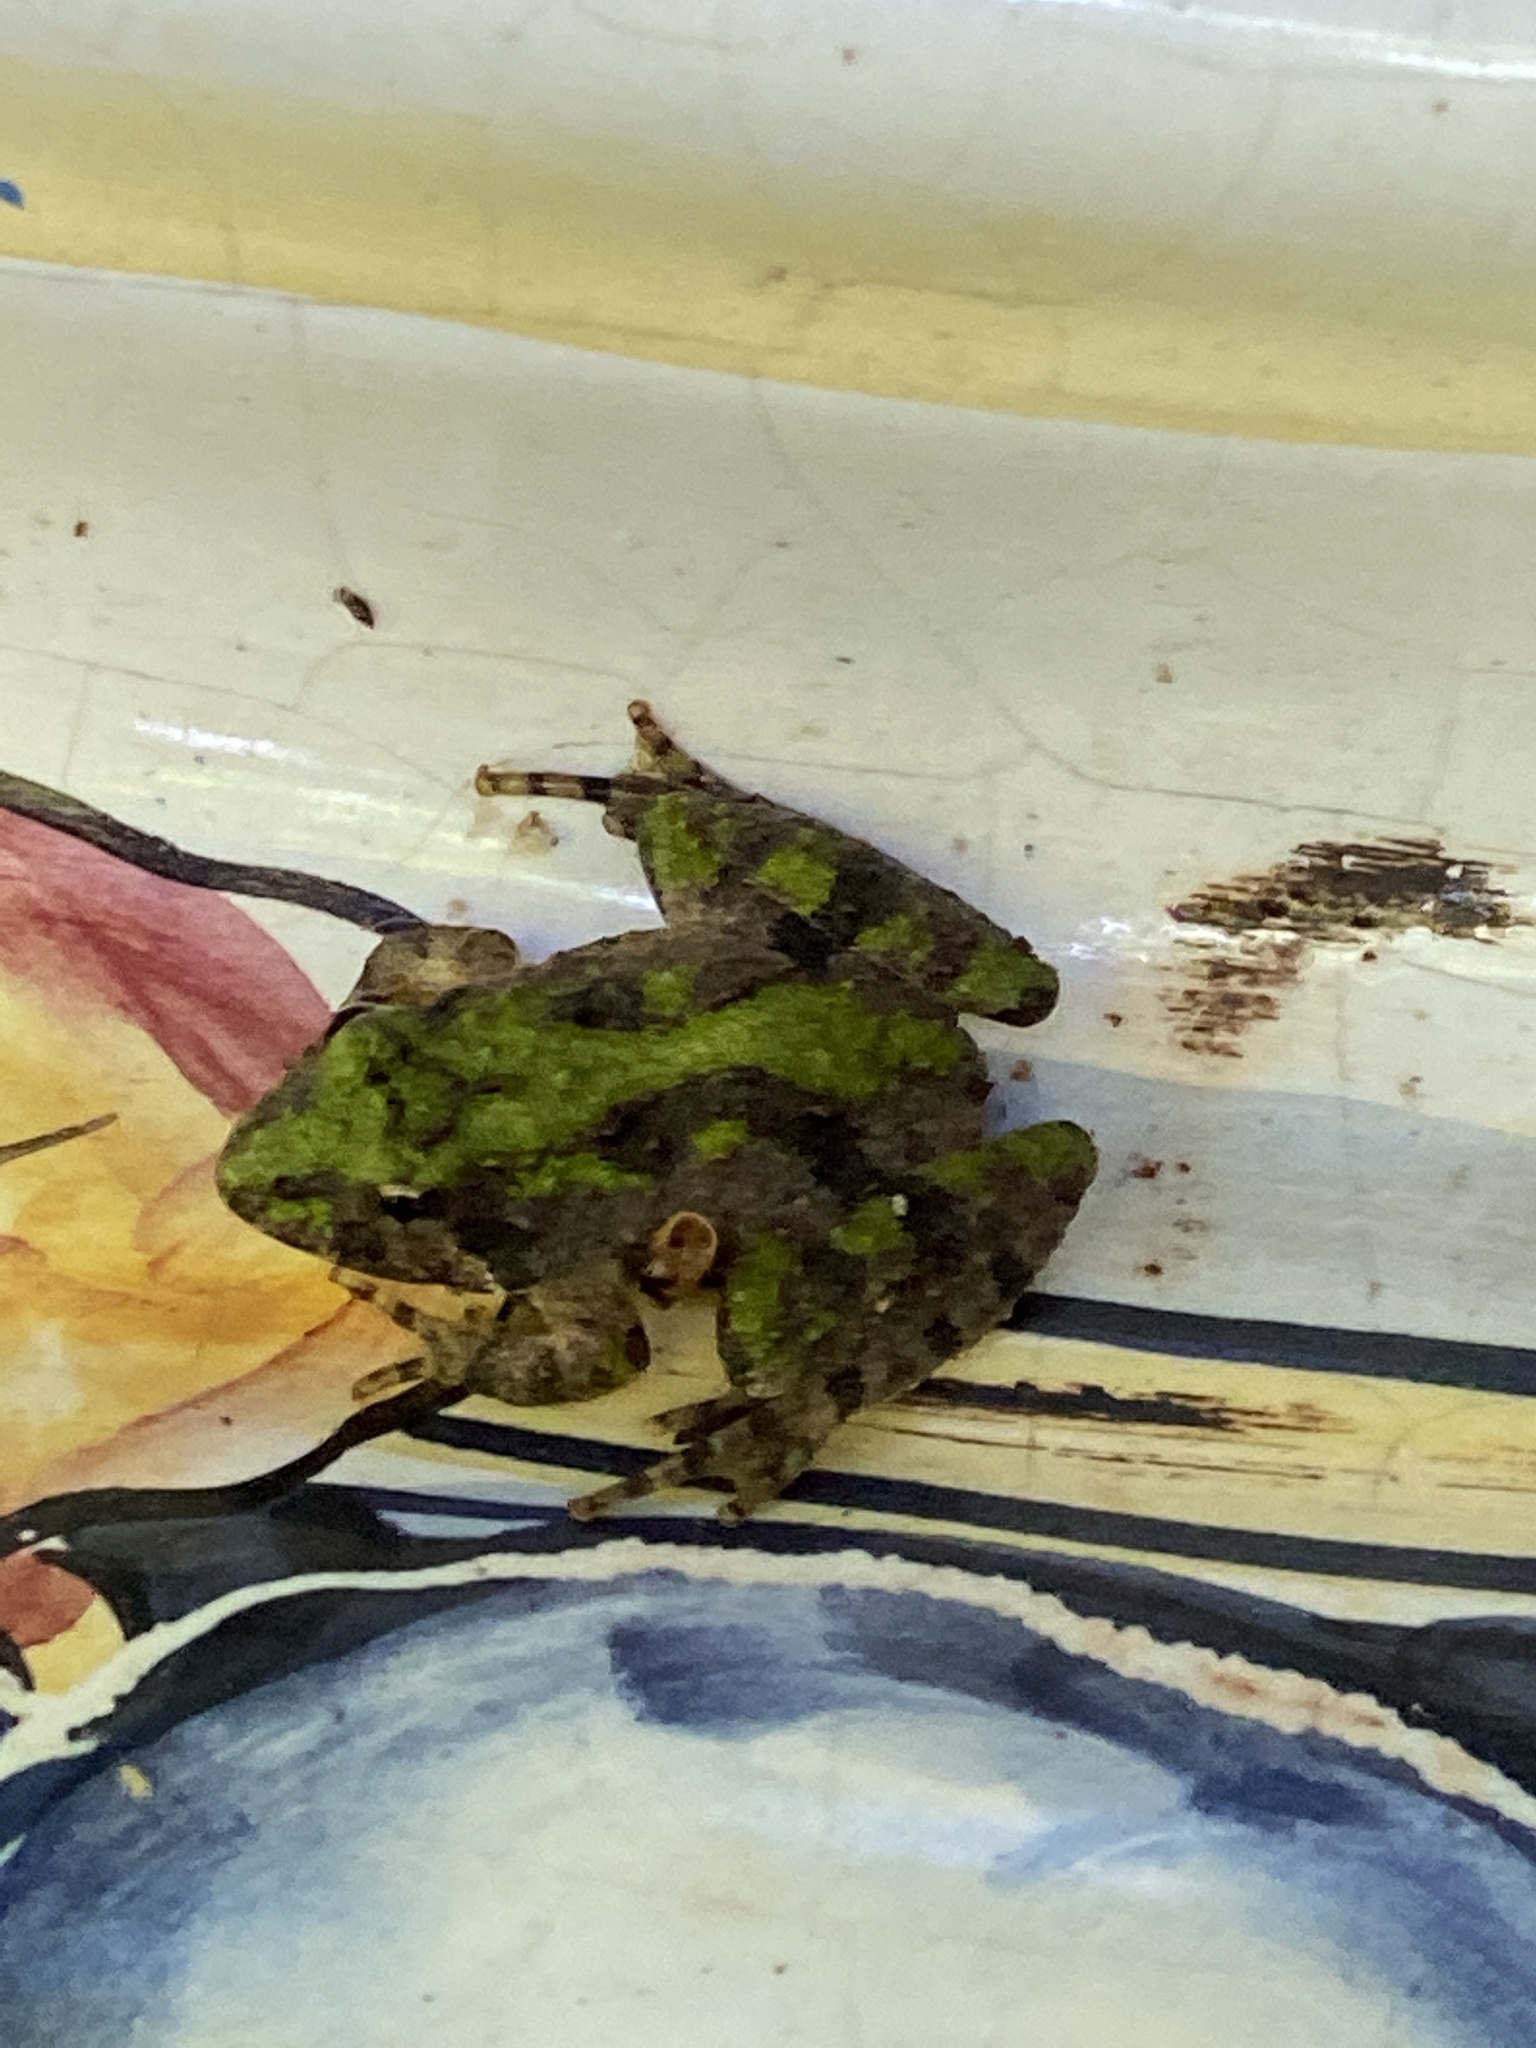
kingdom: Animalia
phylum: Chordata
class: Amphibia
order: Anura
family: Hylidae
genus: Acris
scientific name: Acris crepitans
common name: Northern cricket frog
